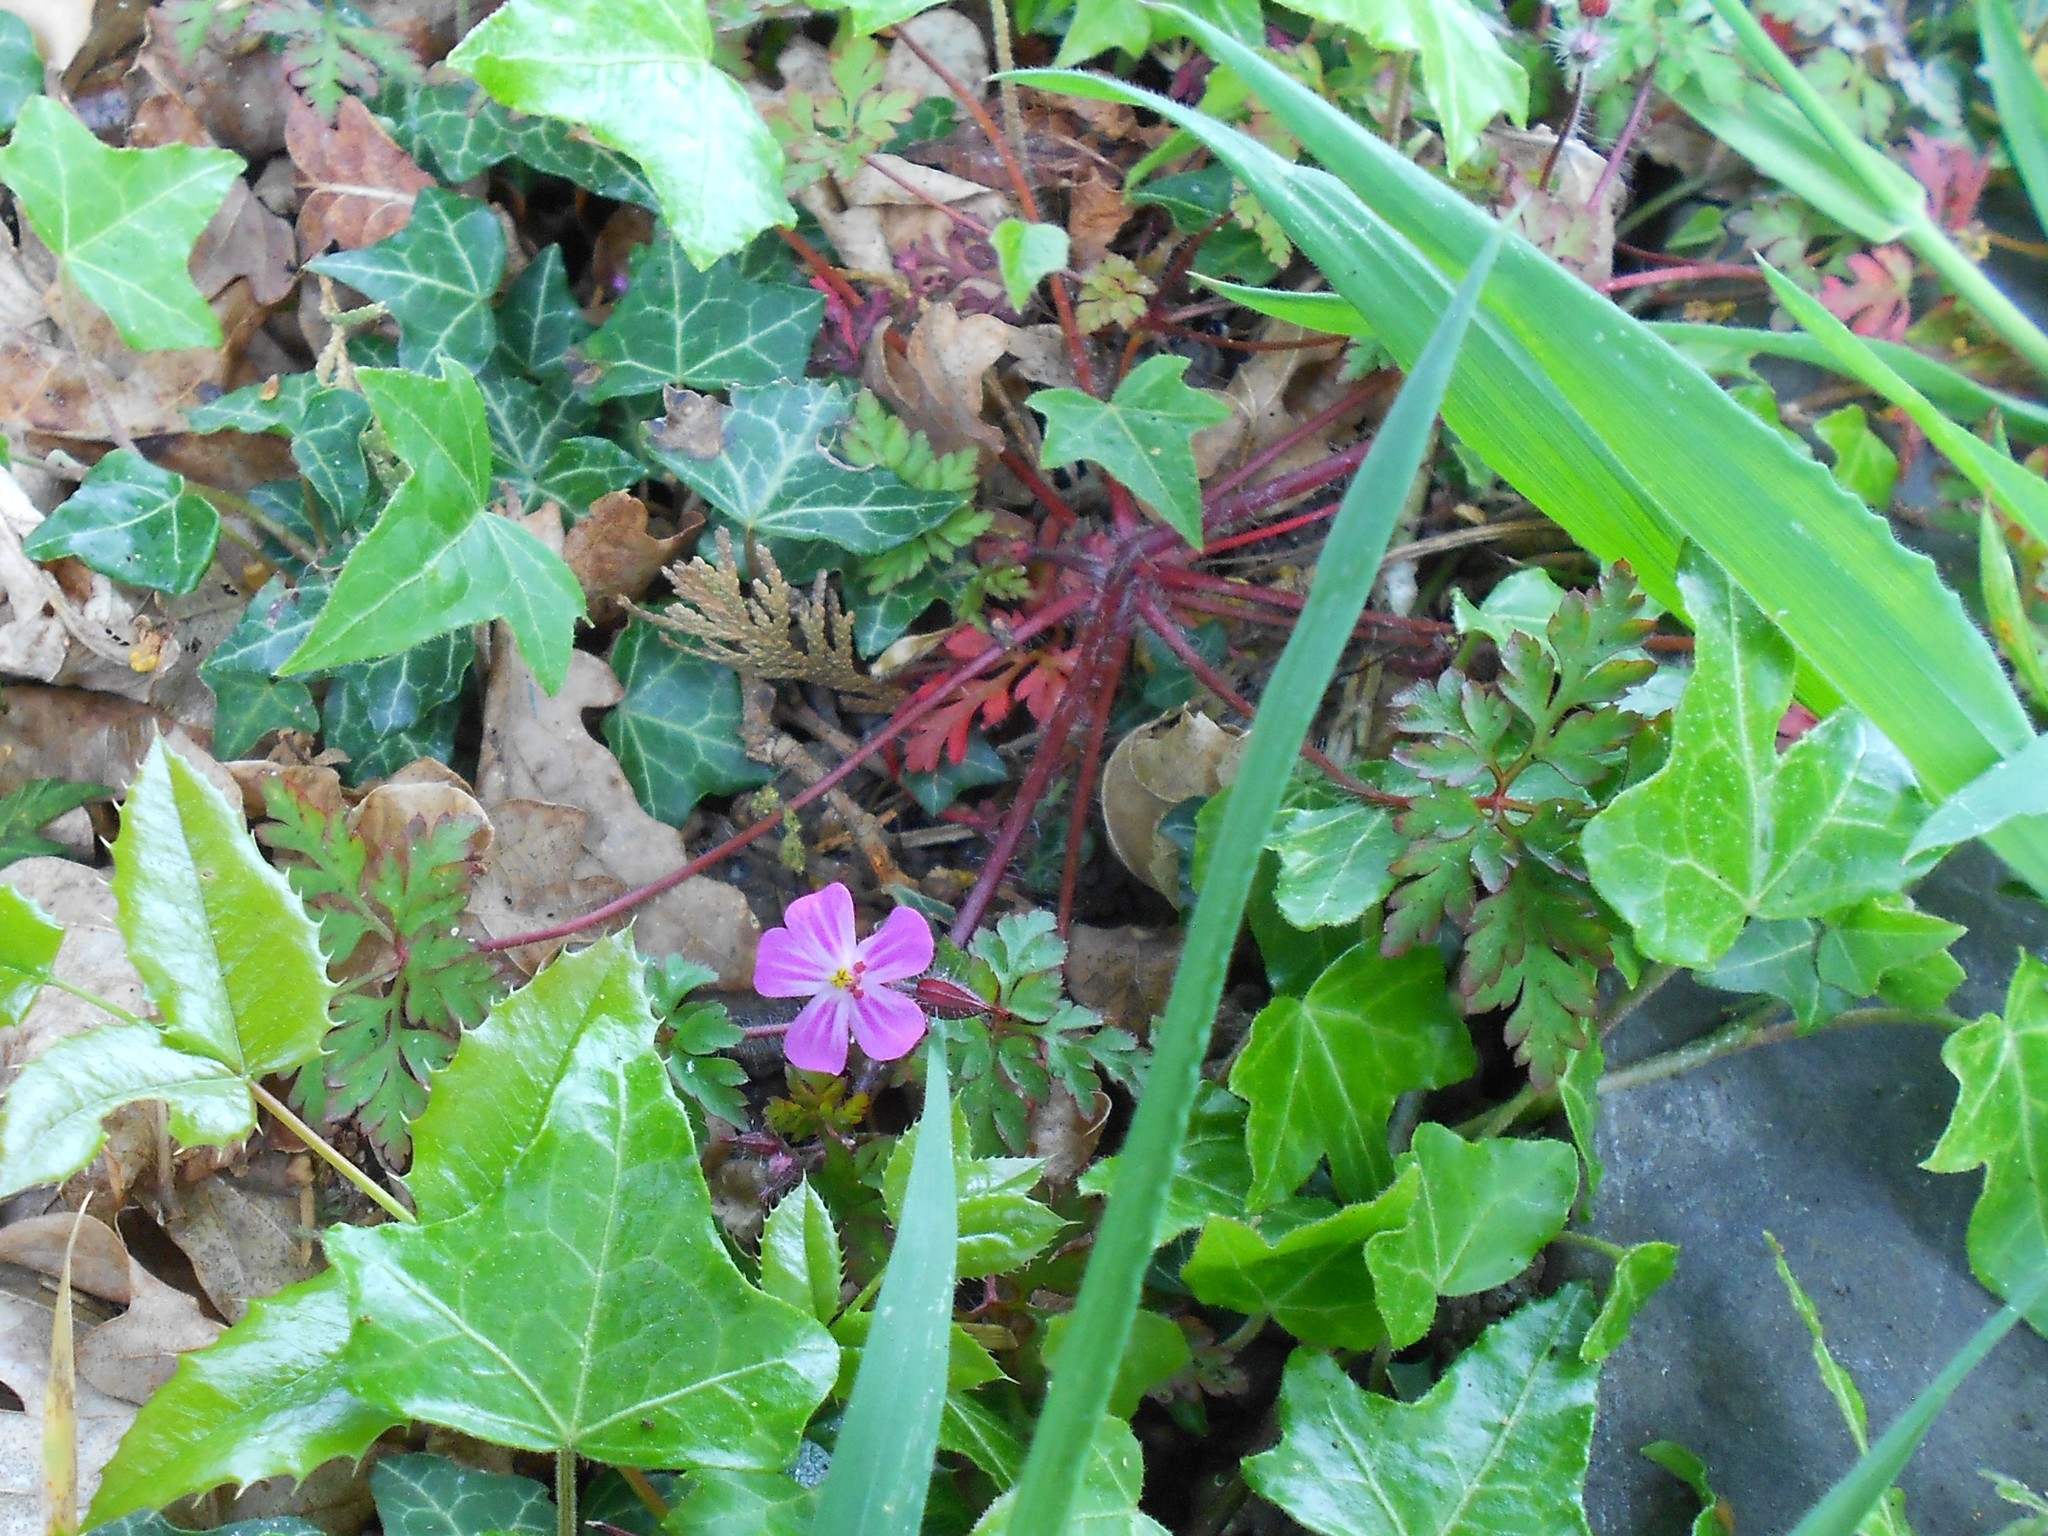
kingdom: Plantae
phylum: Tracheophyta
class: Magnoliopsida
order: Geraniales
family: Geraniaceae
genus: Geranium
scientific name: Geranium robertianum
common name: Herb-robert
